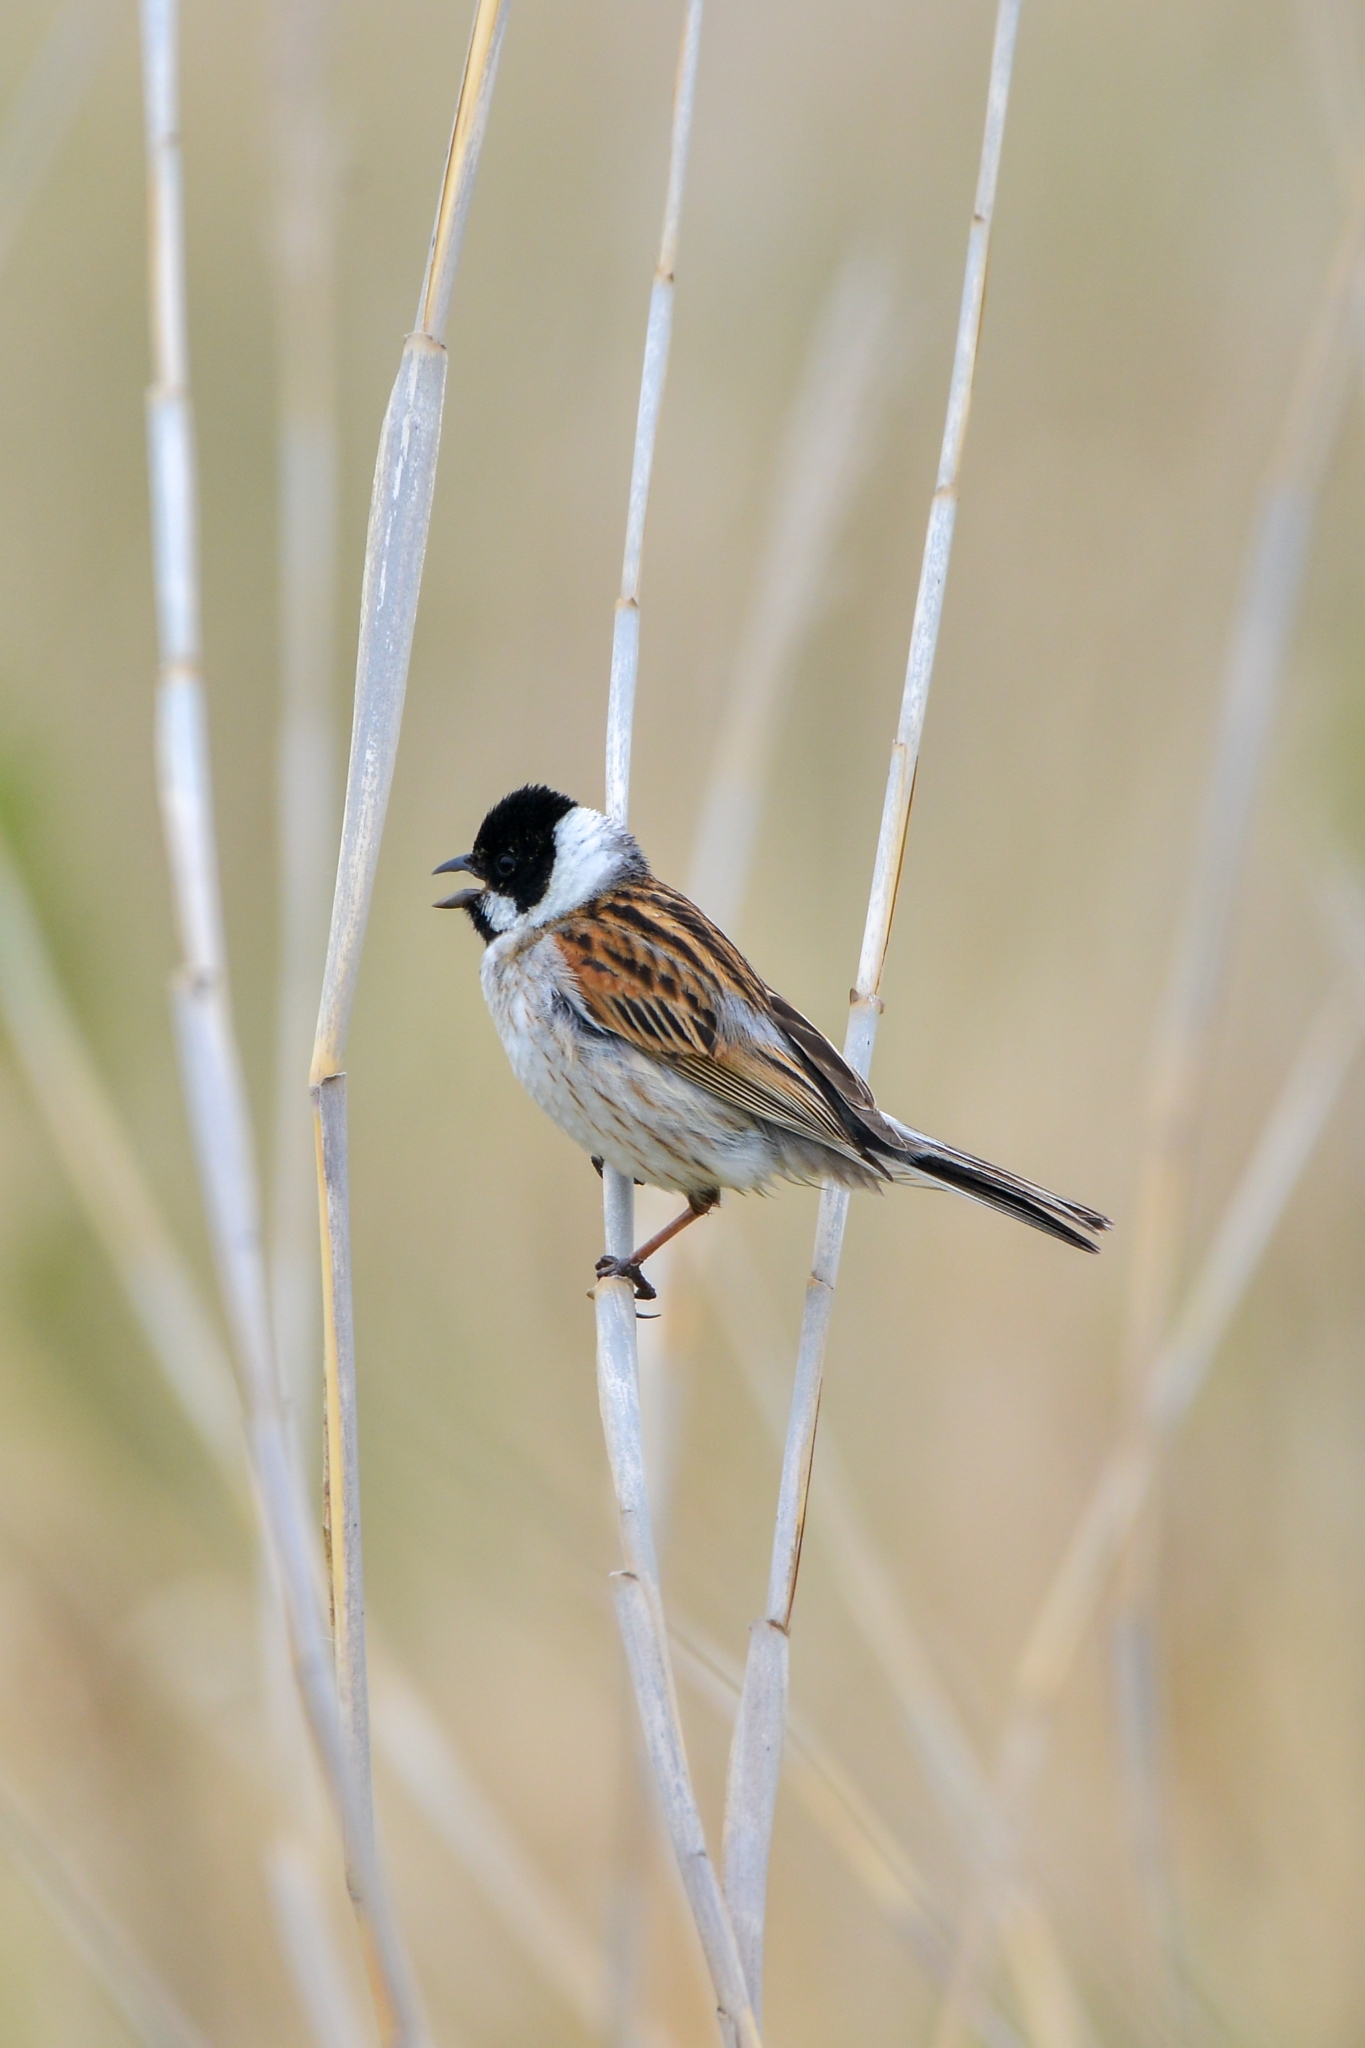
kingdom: Animalia
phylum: Chordata
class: Aves
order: Passeriformes
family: Emberizidae
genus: Emberiza
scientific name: Emberiza schoeniclus
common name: Reed bunting
